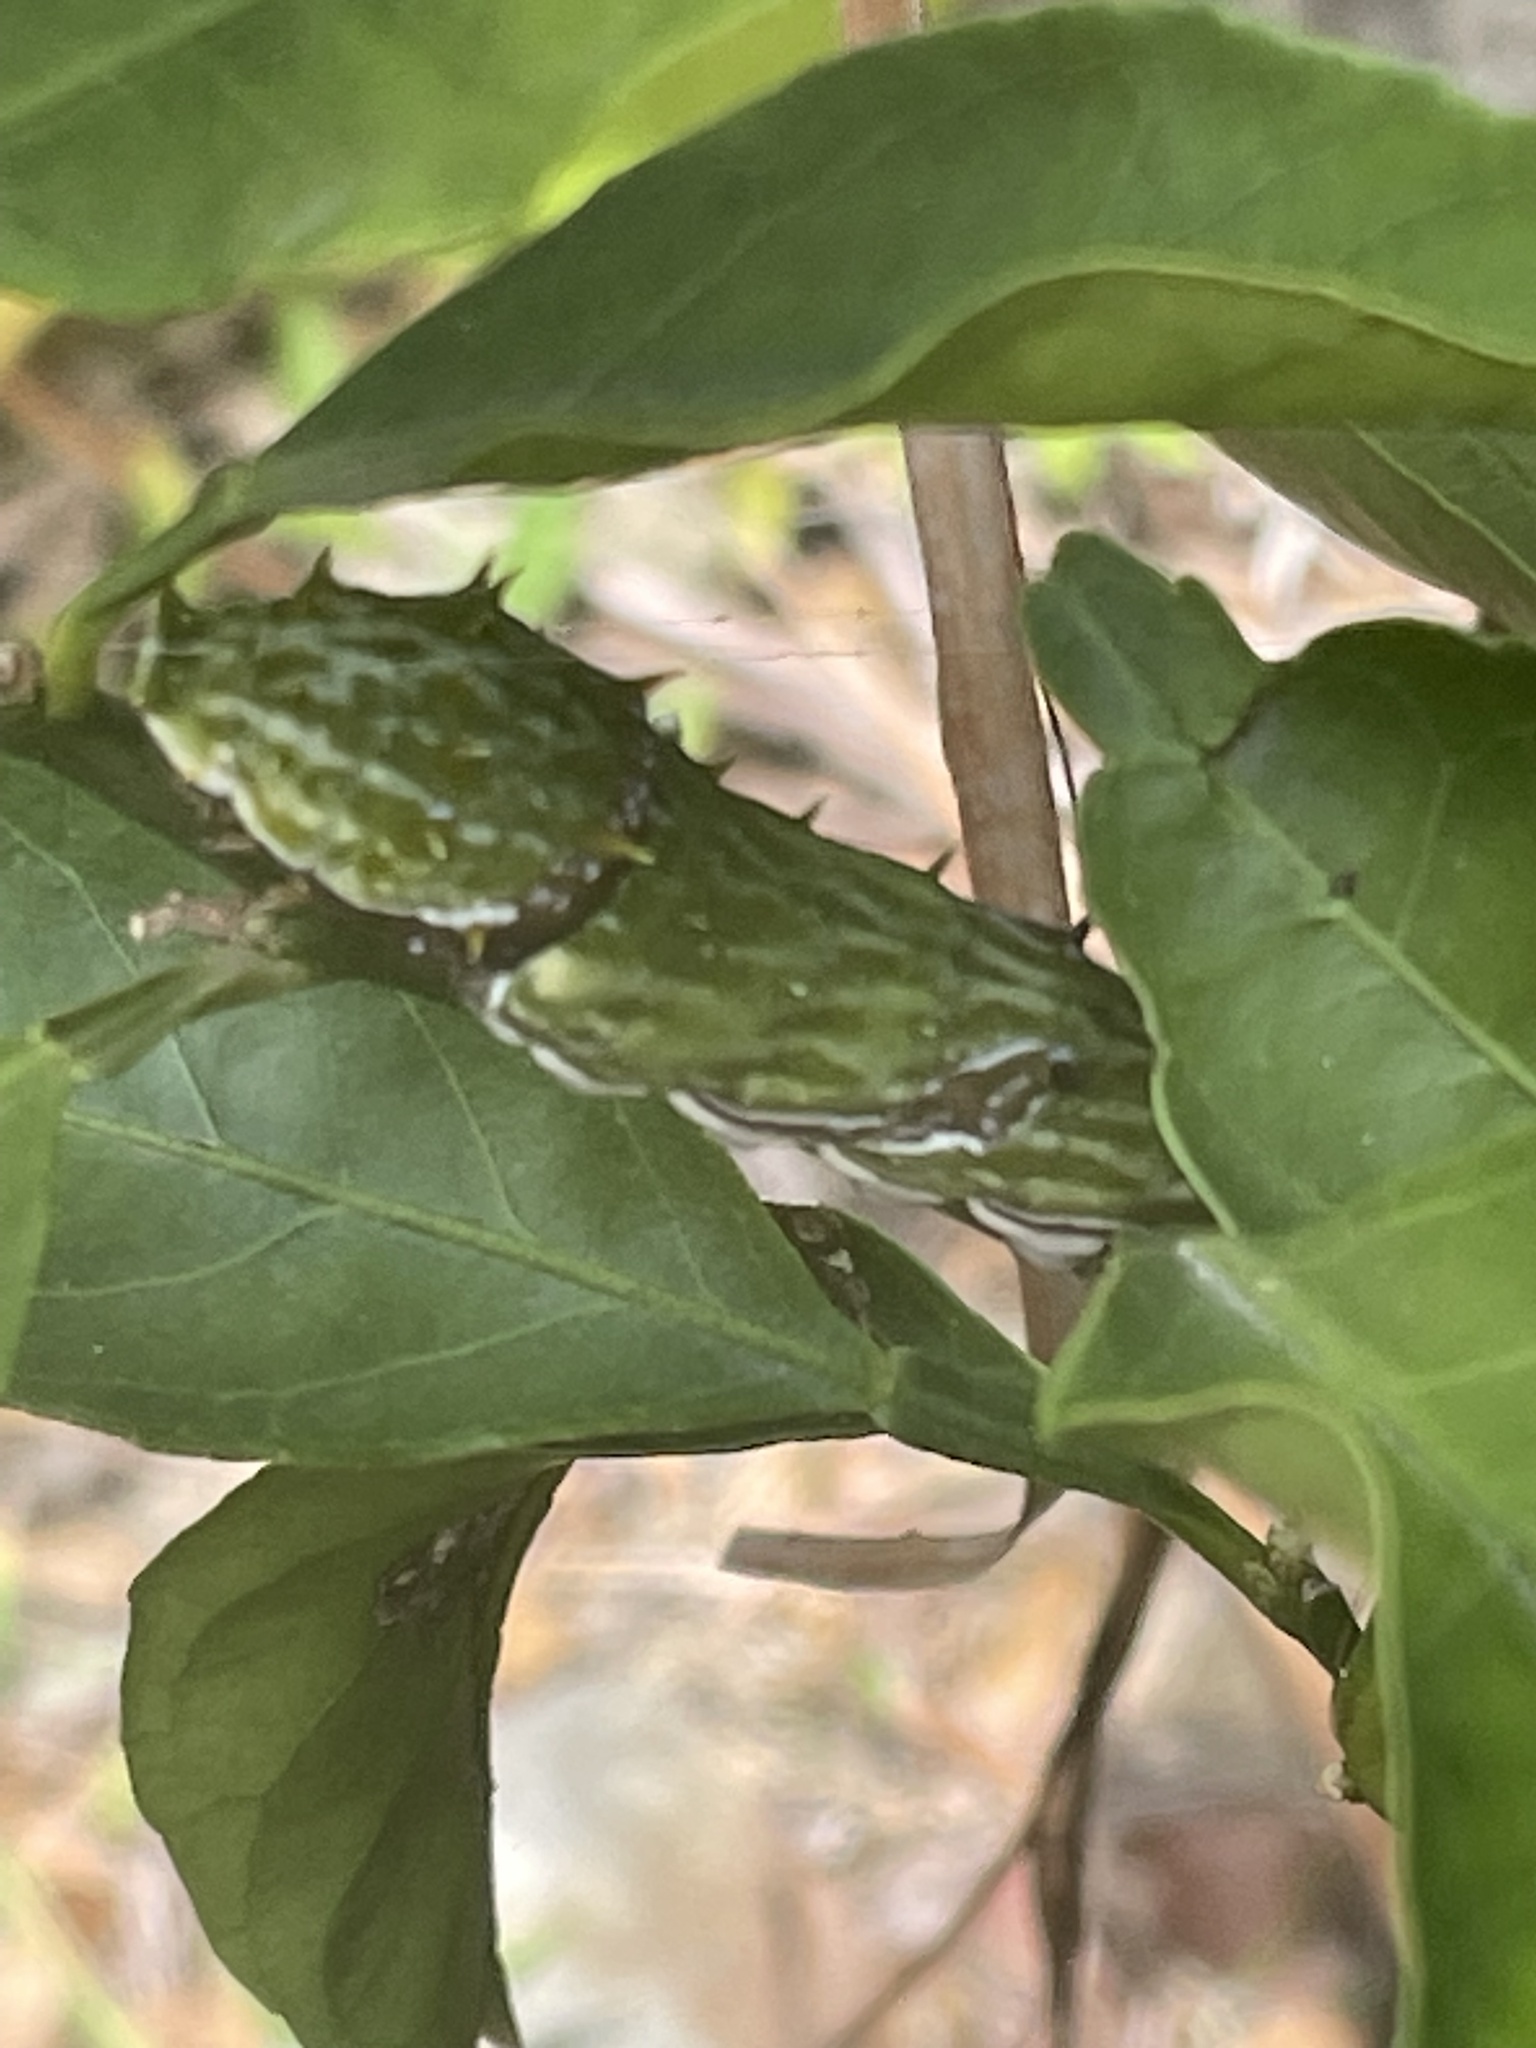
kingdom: Animalia
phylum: Arthropoda
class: Insecta
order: Lepidoptera
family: Papilionidae
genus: Papilio
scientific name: Papilio aegeus
